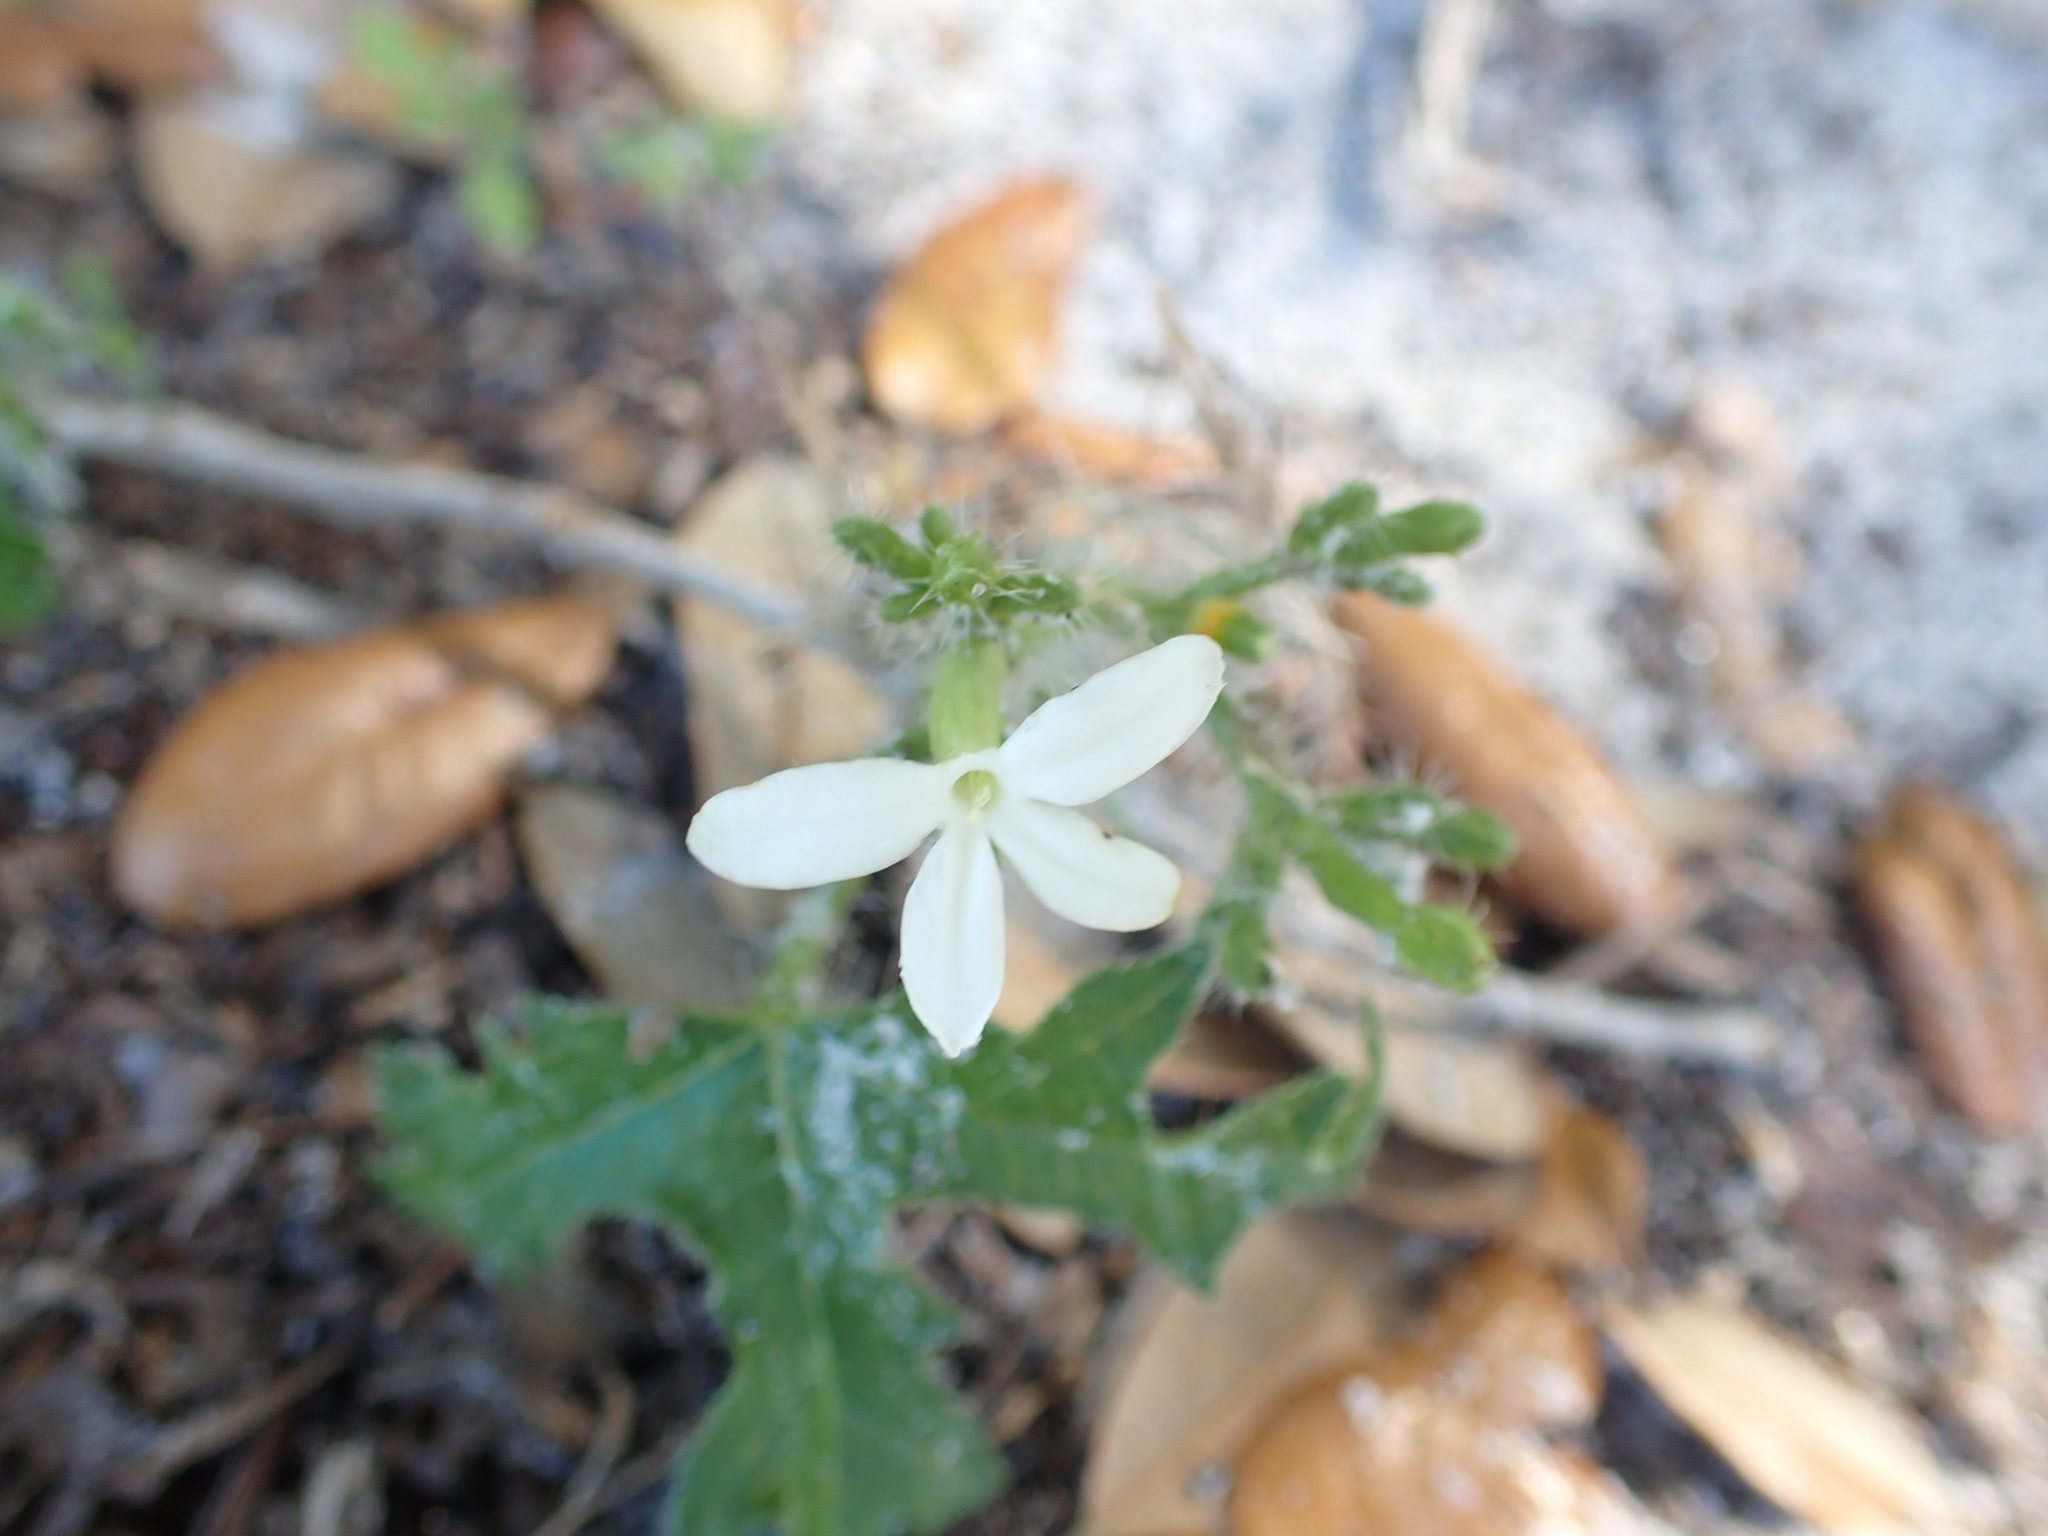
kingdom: Plantae
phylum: Tracheophyta
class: Magnoliopsida
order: Malpighiales
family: Euphorbiaceae
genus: Cnidoscolus
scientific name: Cnidoscolus stimulosus
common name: Bull-nettle
